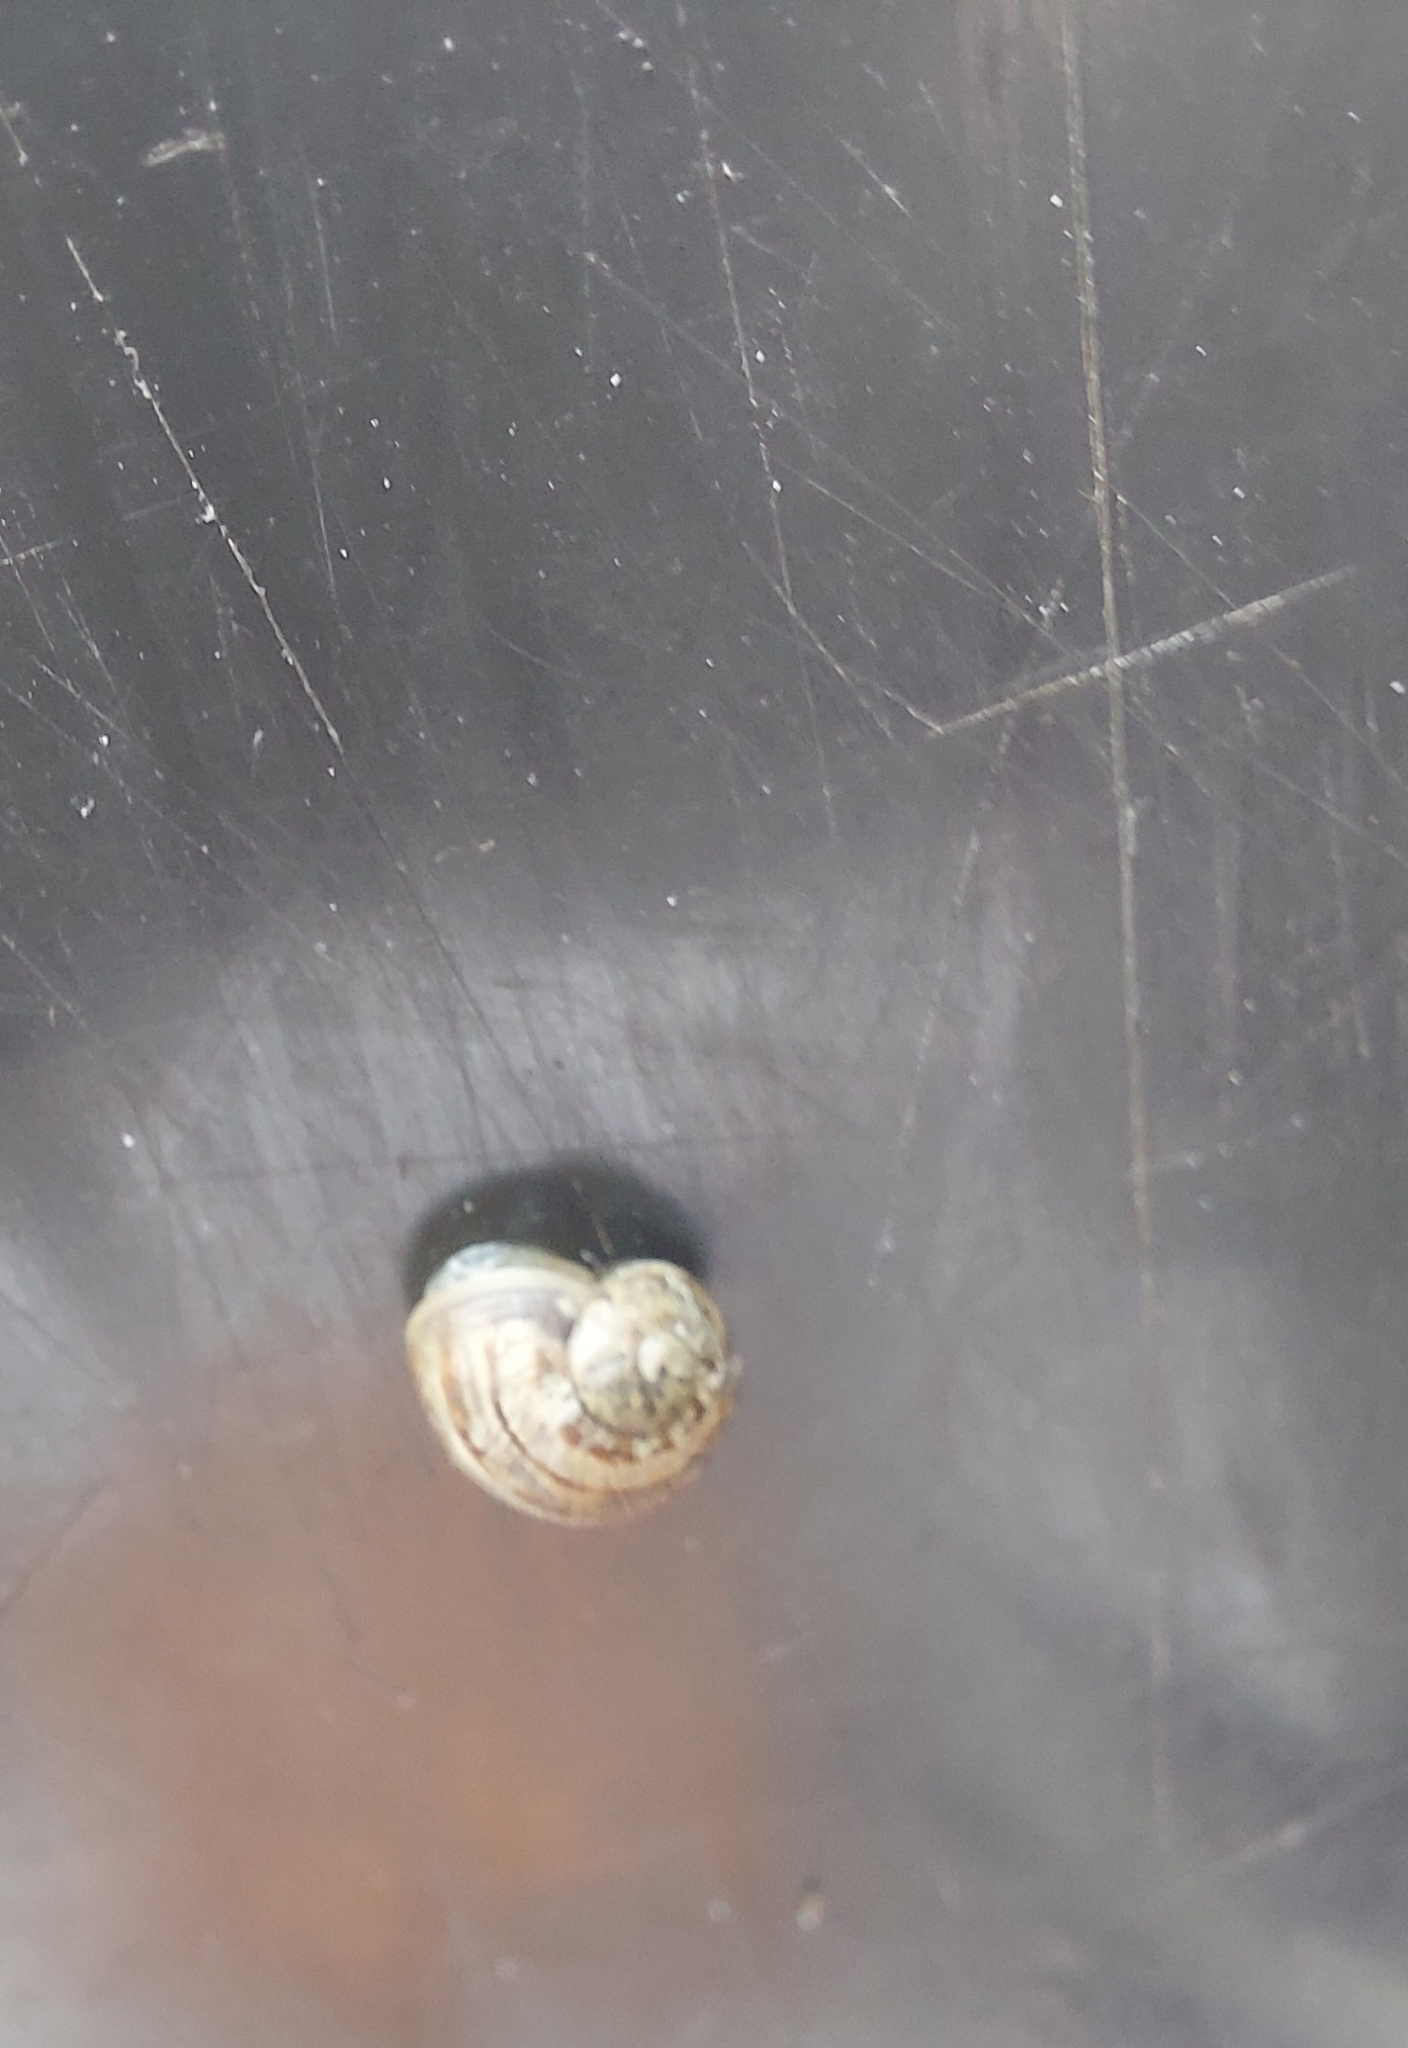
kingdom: Animalia
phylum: Mollusca
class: Gastropoda
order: Stylommatophora
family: Helicidae
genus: Cornu
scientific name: Cornu aspersum
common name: Brown garden snail
